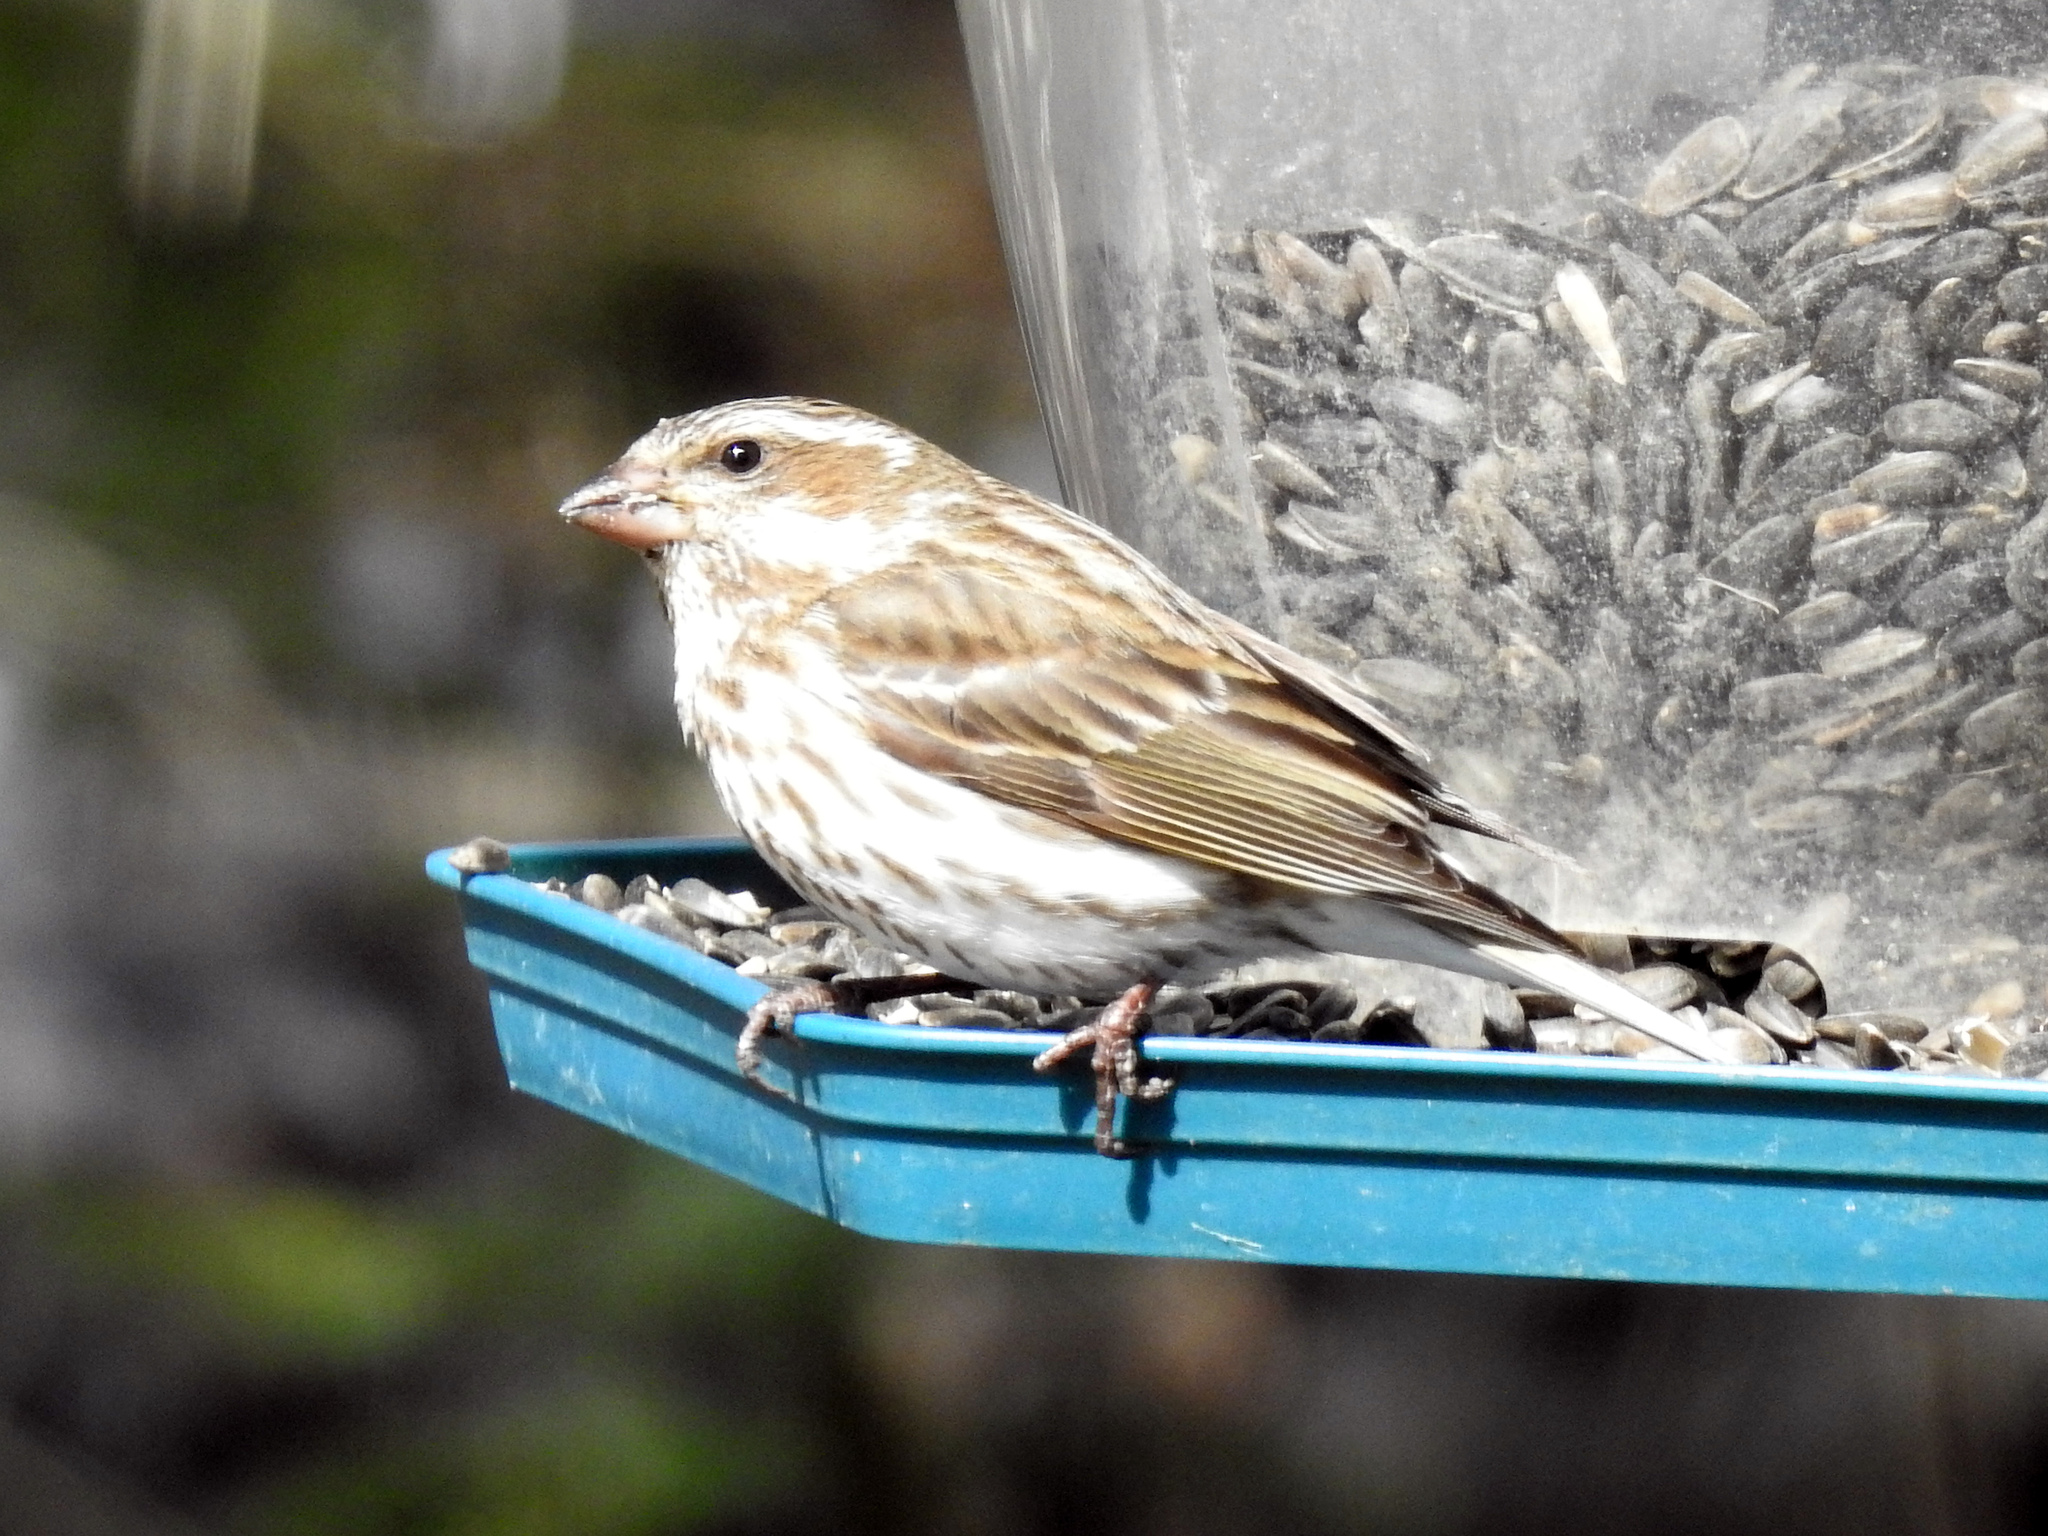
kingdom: Animalia
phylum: Chordata
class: Aves
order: Passeriformes
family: Fringillidae
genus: Haemorhous
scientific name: Haemorhous purpureus
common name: Purple finch
